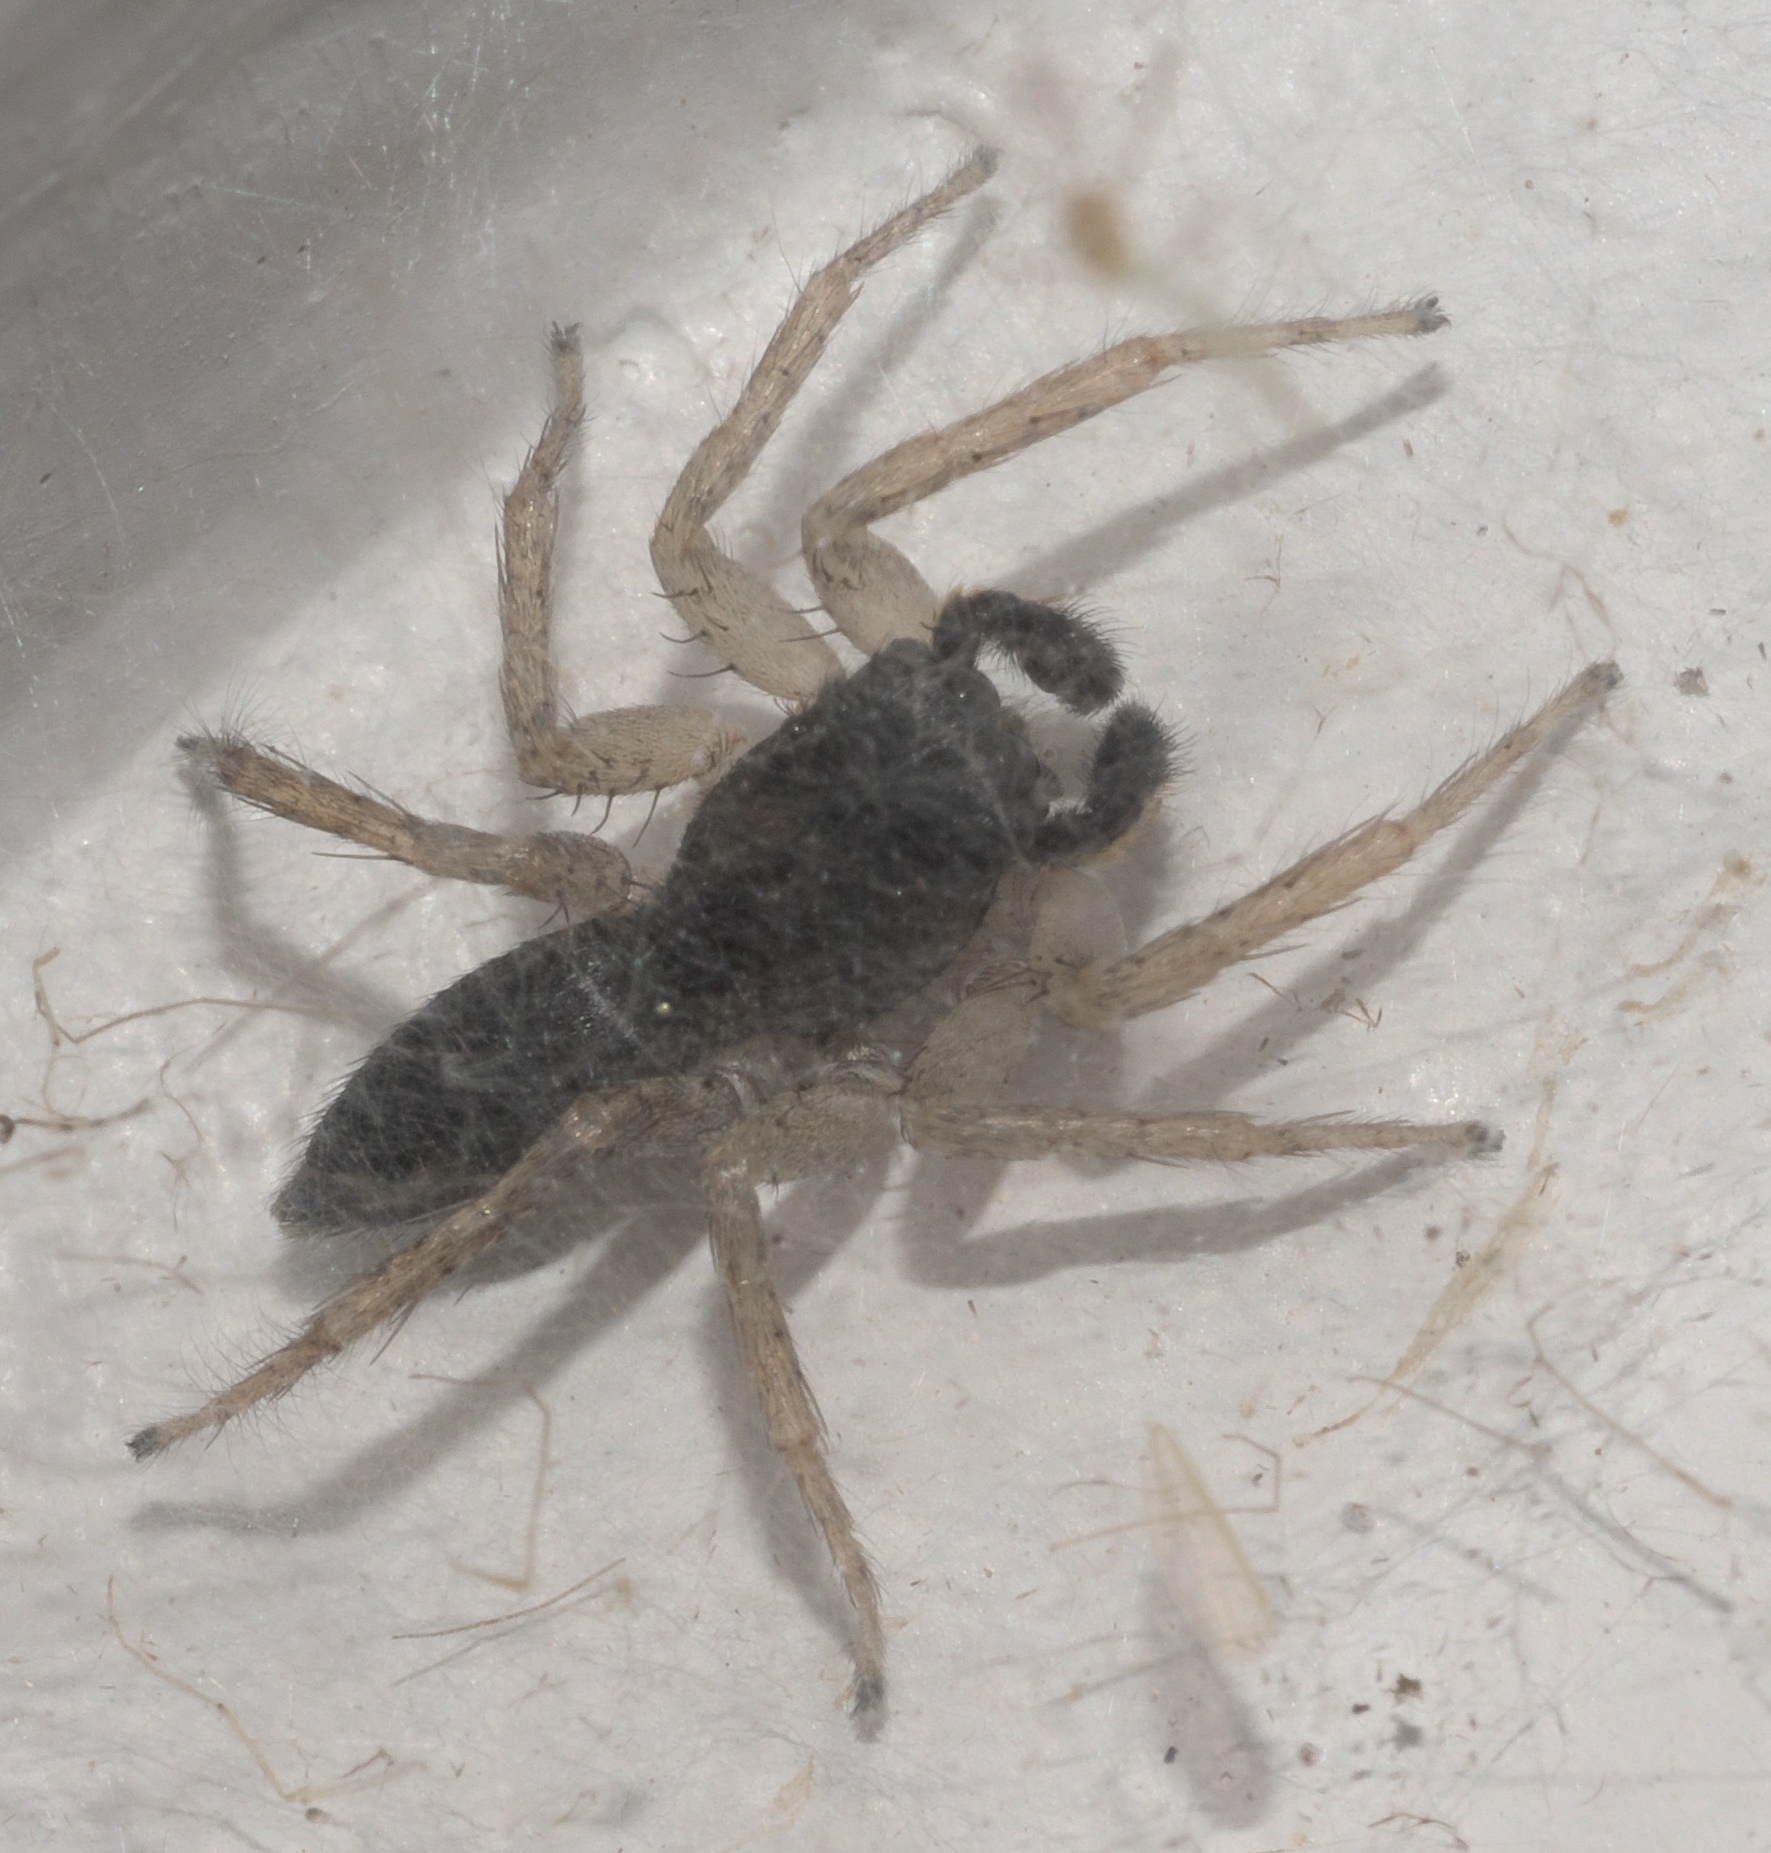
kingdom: Animalia
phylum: Arthropoda
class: Arachnida
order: Araneae
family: Salticidae
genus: Maevia
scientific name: Maevia inclemens
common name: Dimorphic jumper
